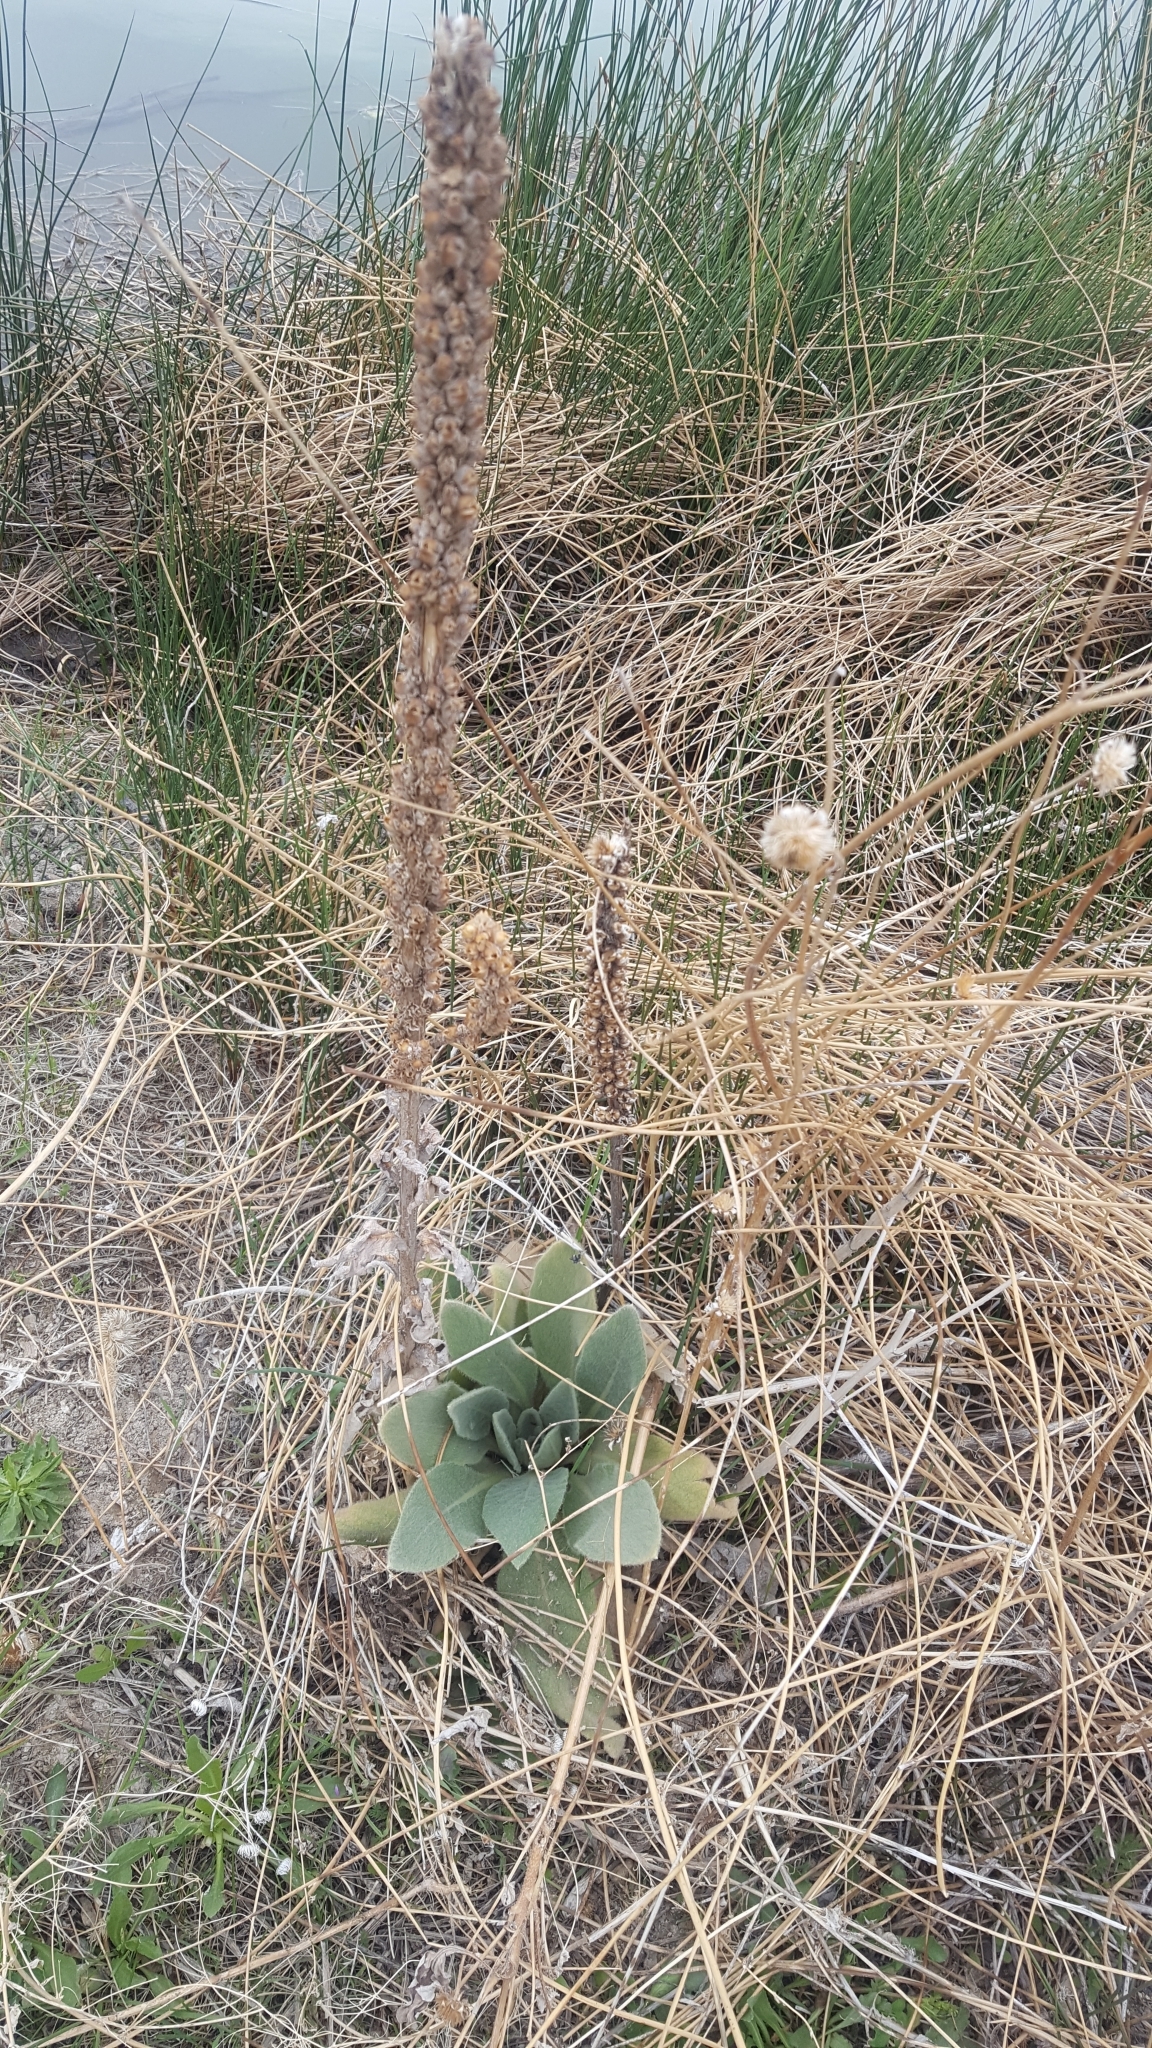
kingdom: Plantae
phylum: Tracheophyta
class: Magnoliopsida
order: Lamiales
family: Scrophulariaceae
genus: Verbascum
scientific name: Verbascum thapsus
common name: Common mullein
